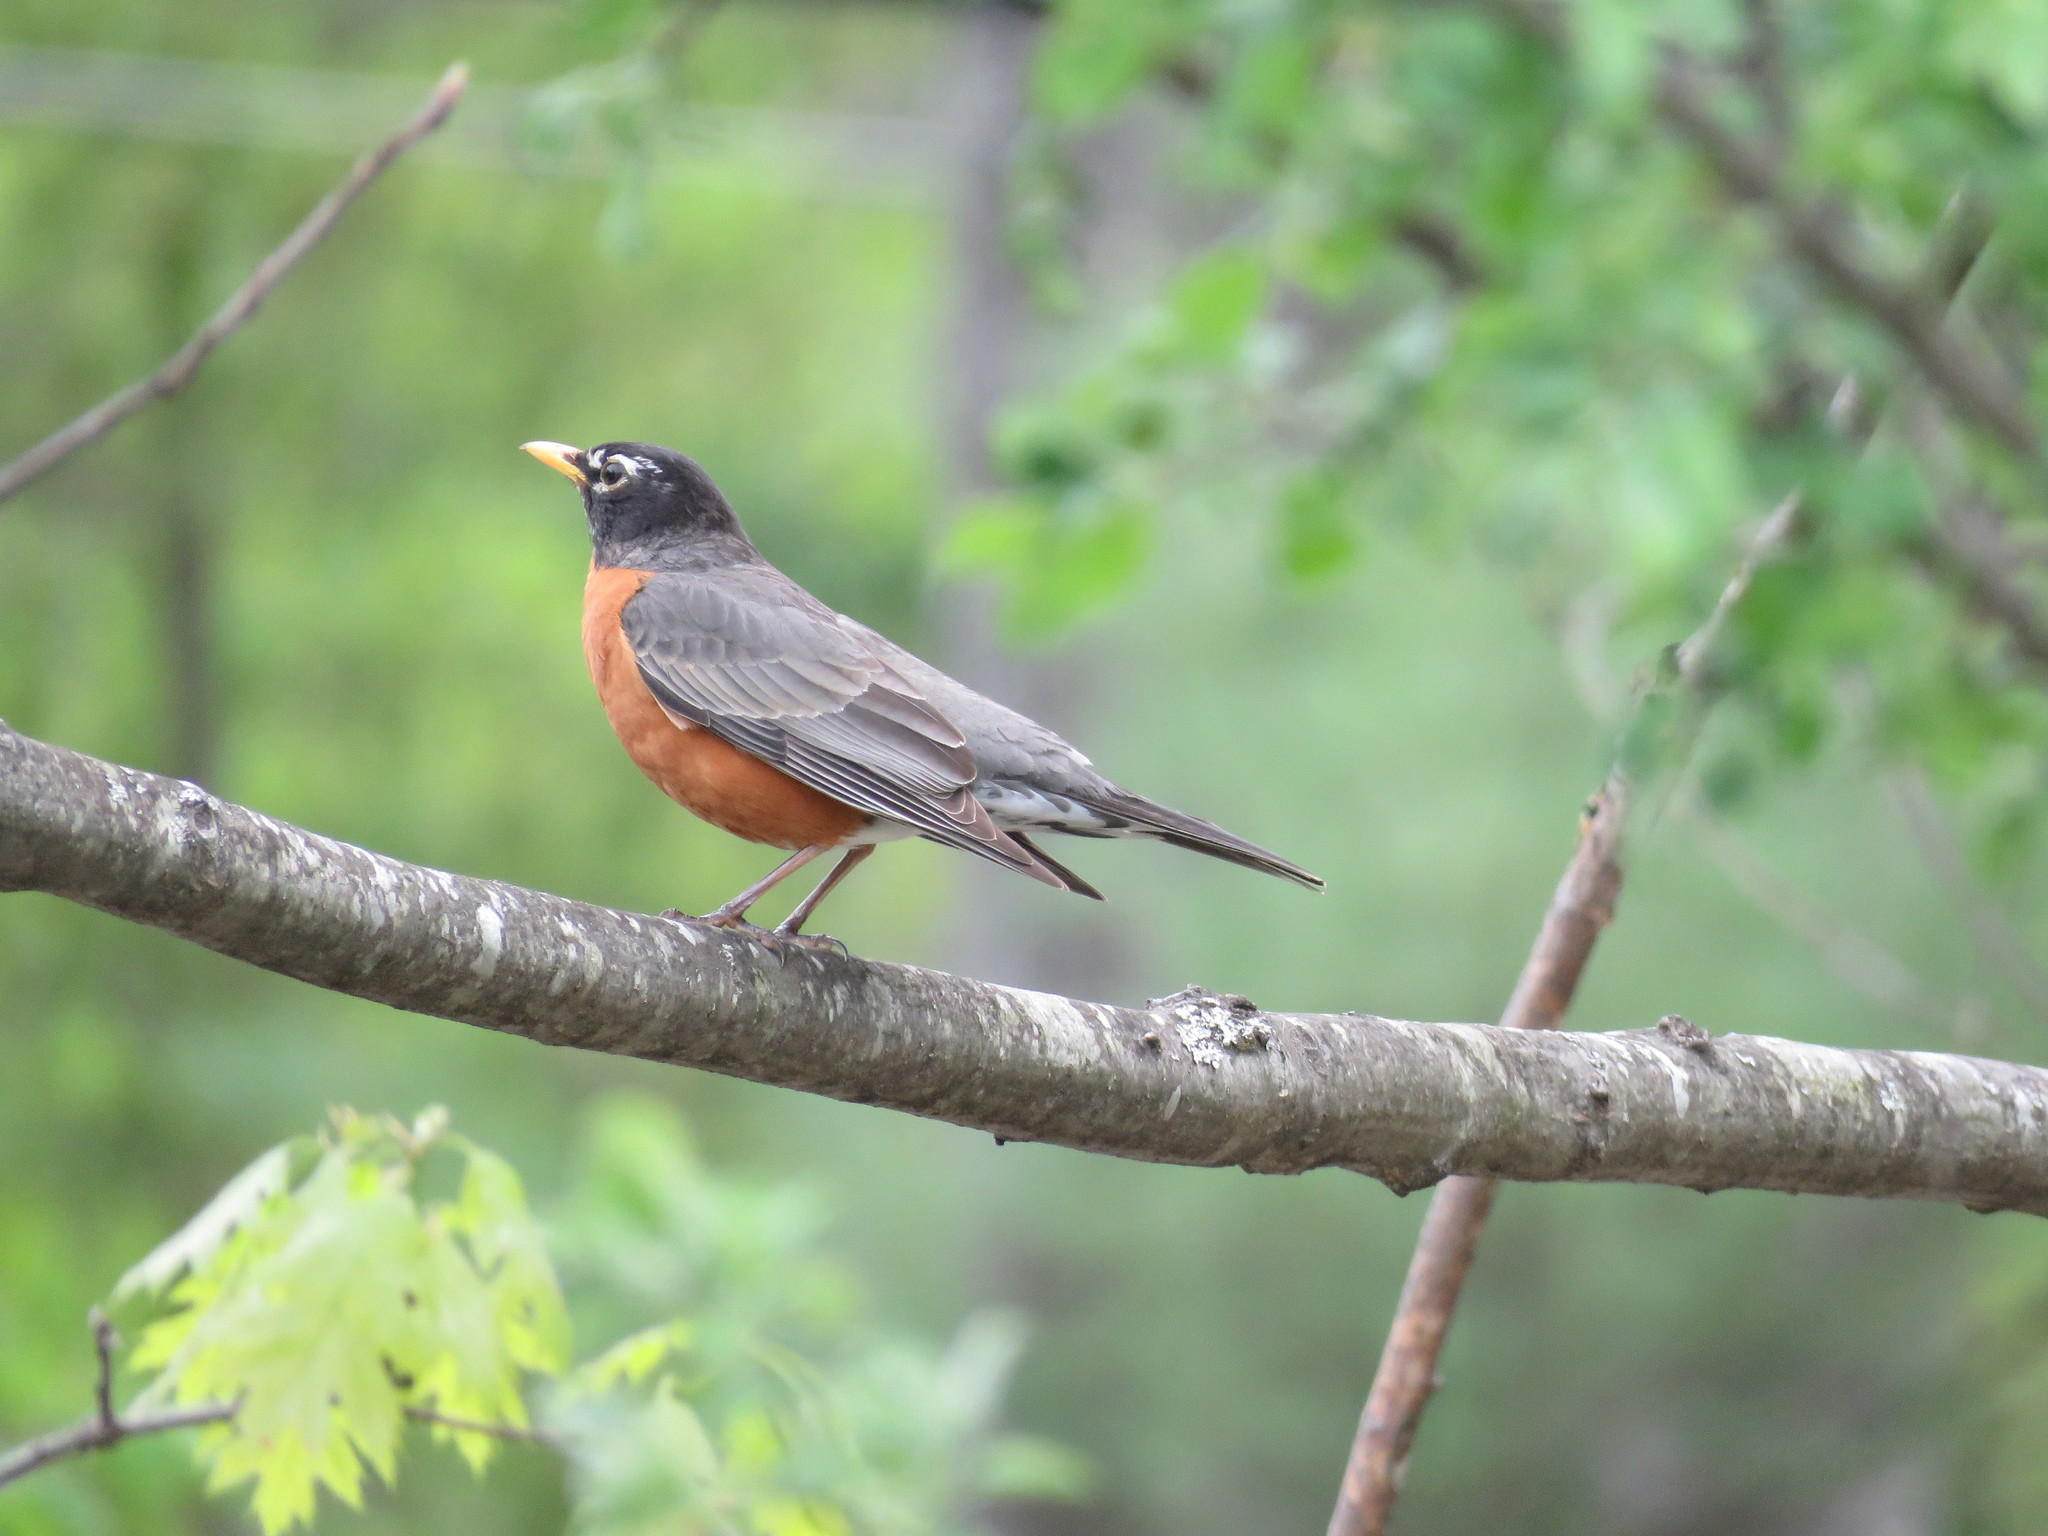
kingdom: Animalia
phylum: Chordata
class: Aves
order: Passeriformes
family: Turdidae
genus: Turdus
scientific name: Turdus migratorius
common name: American robin
